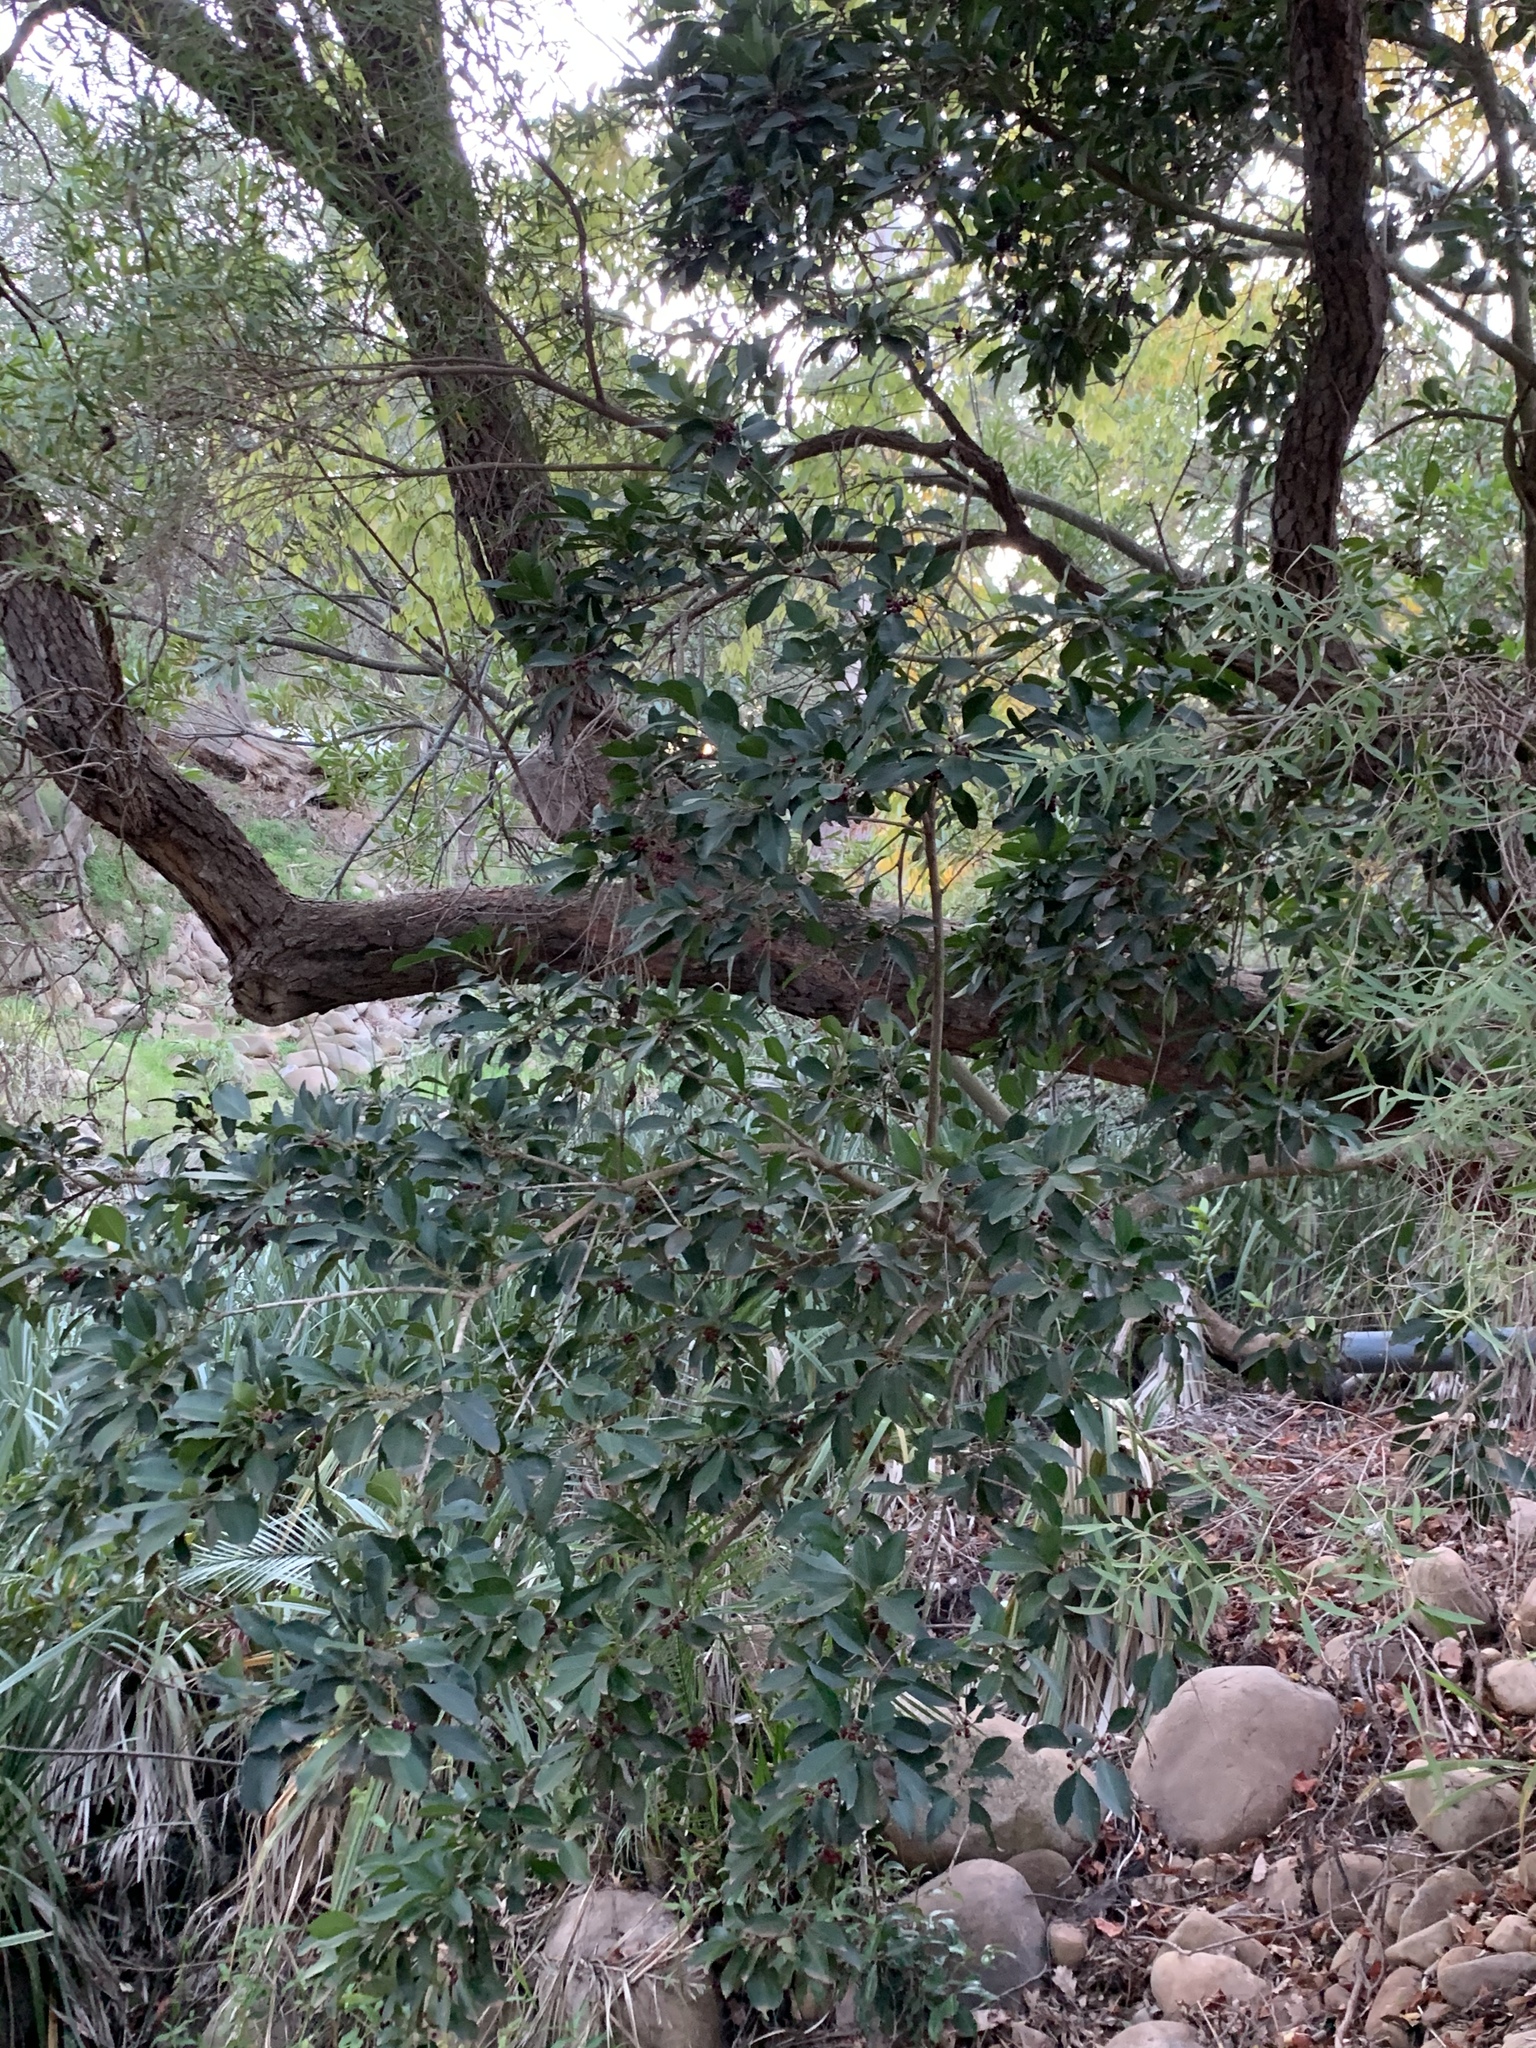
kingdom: Plantae
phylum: Tracheophyta
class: Magnoliopsida
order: Aquifoliales
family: Aquifoliaceae
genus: Ilex
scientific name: Ilex mitis
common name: African holly
